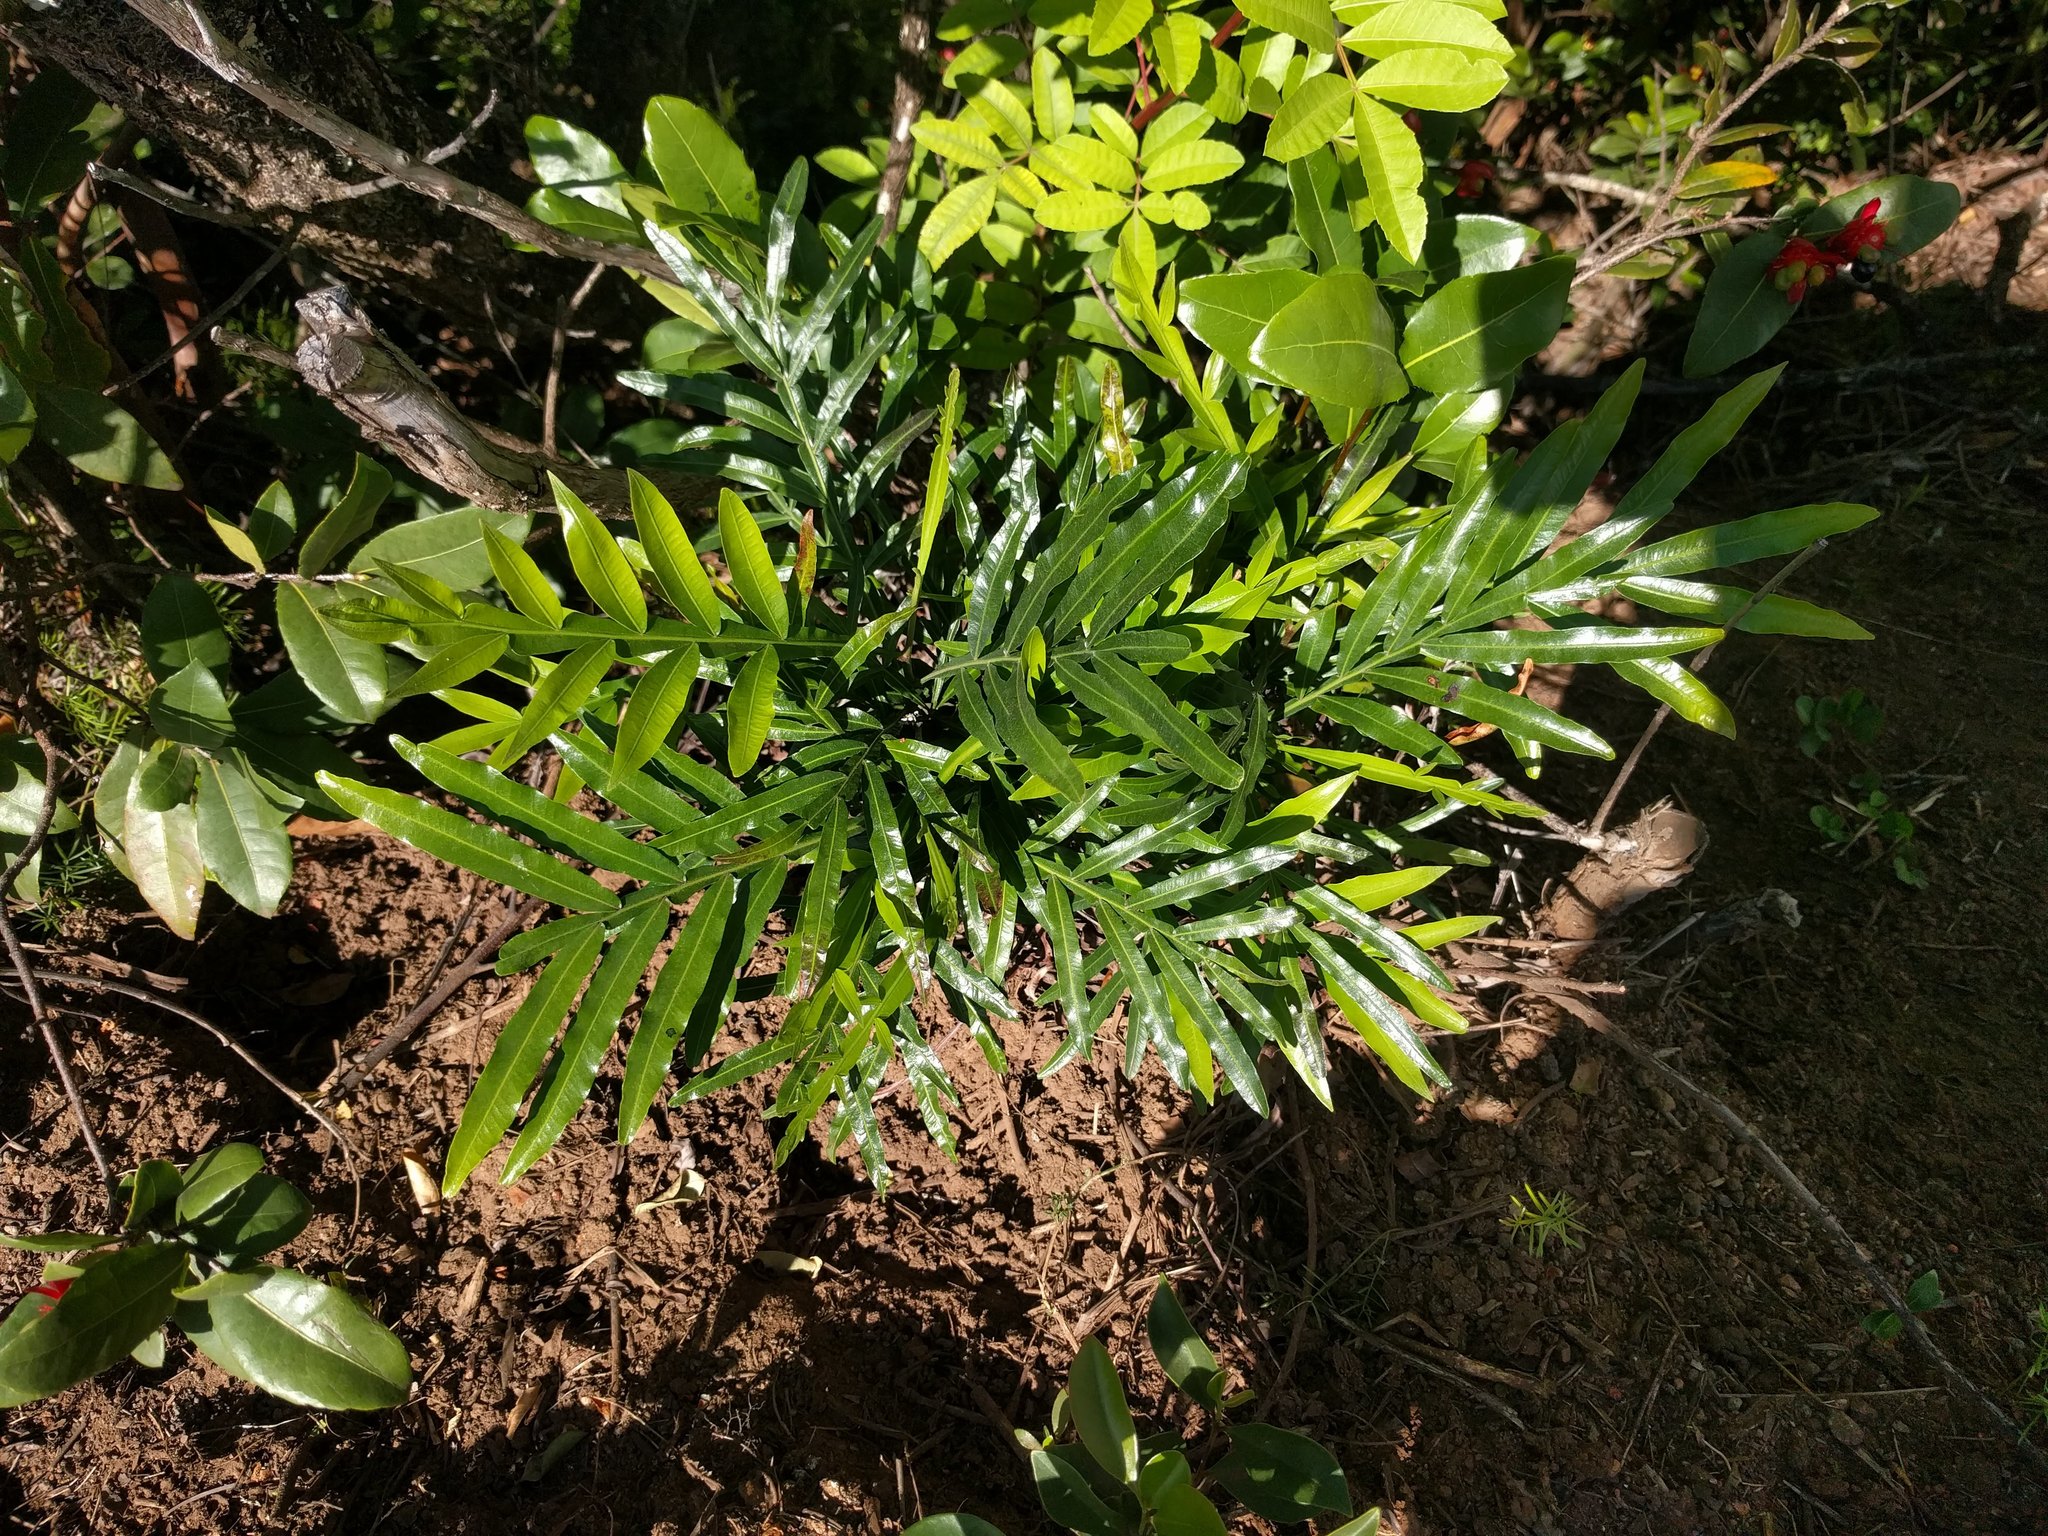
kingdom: Plantae
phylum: Tracheophyta
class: Magnoliopsida
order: Sapindales
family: Sapindaceae
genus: Filicium
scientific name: Filicium decipiens
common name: Ferntree
